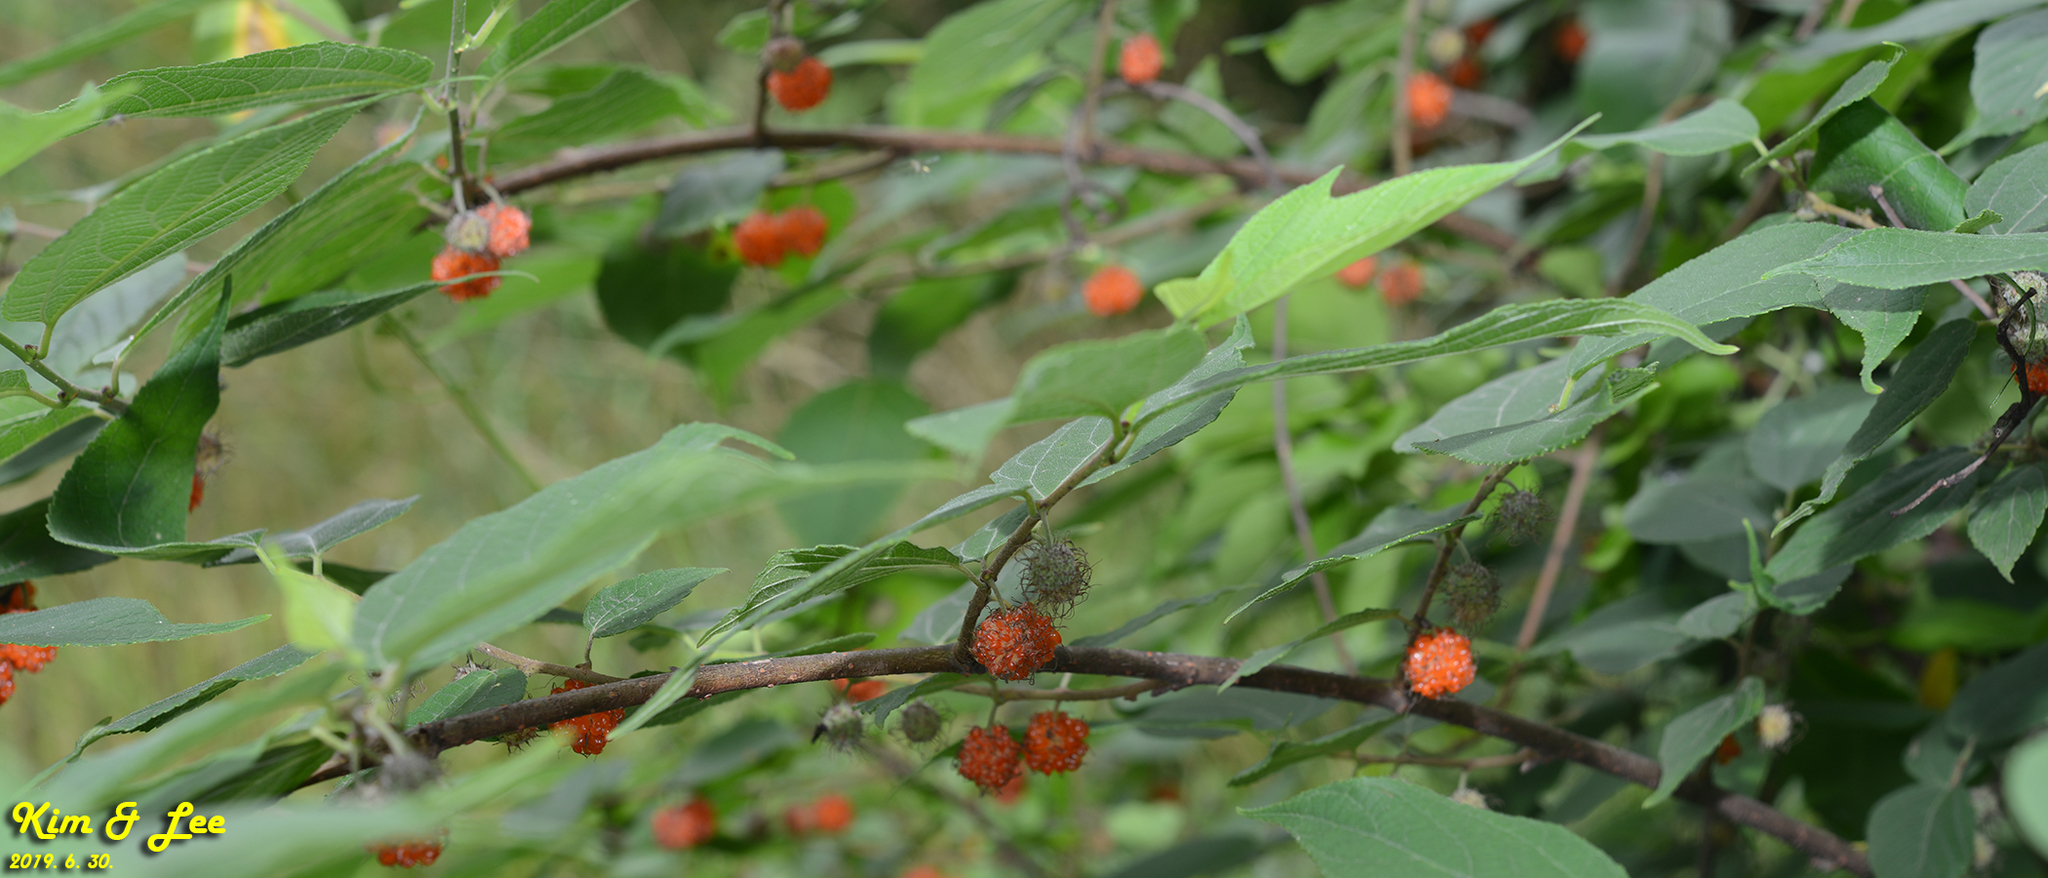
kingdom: Plantae
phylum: Tracheophyta
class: Magnoliopsida
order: Rosales
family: Moraceae
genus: Broussonetia
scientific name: Broussonetia papyrifera
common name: Paper mulberry
